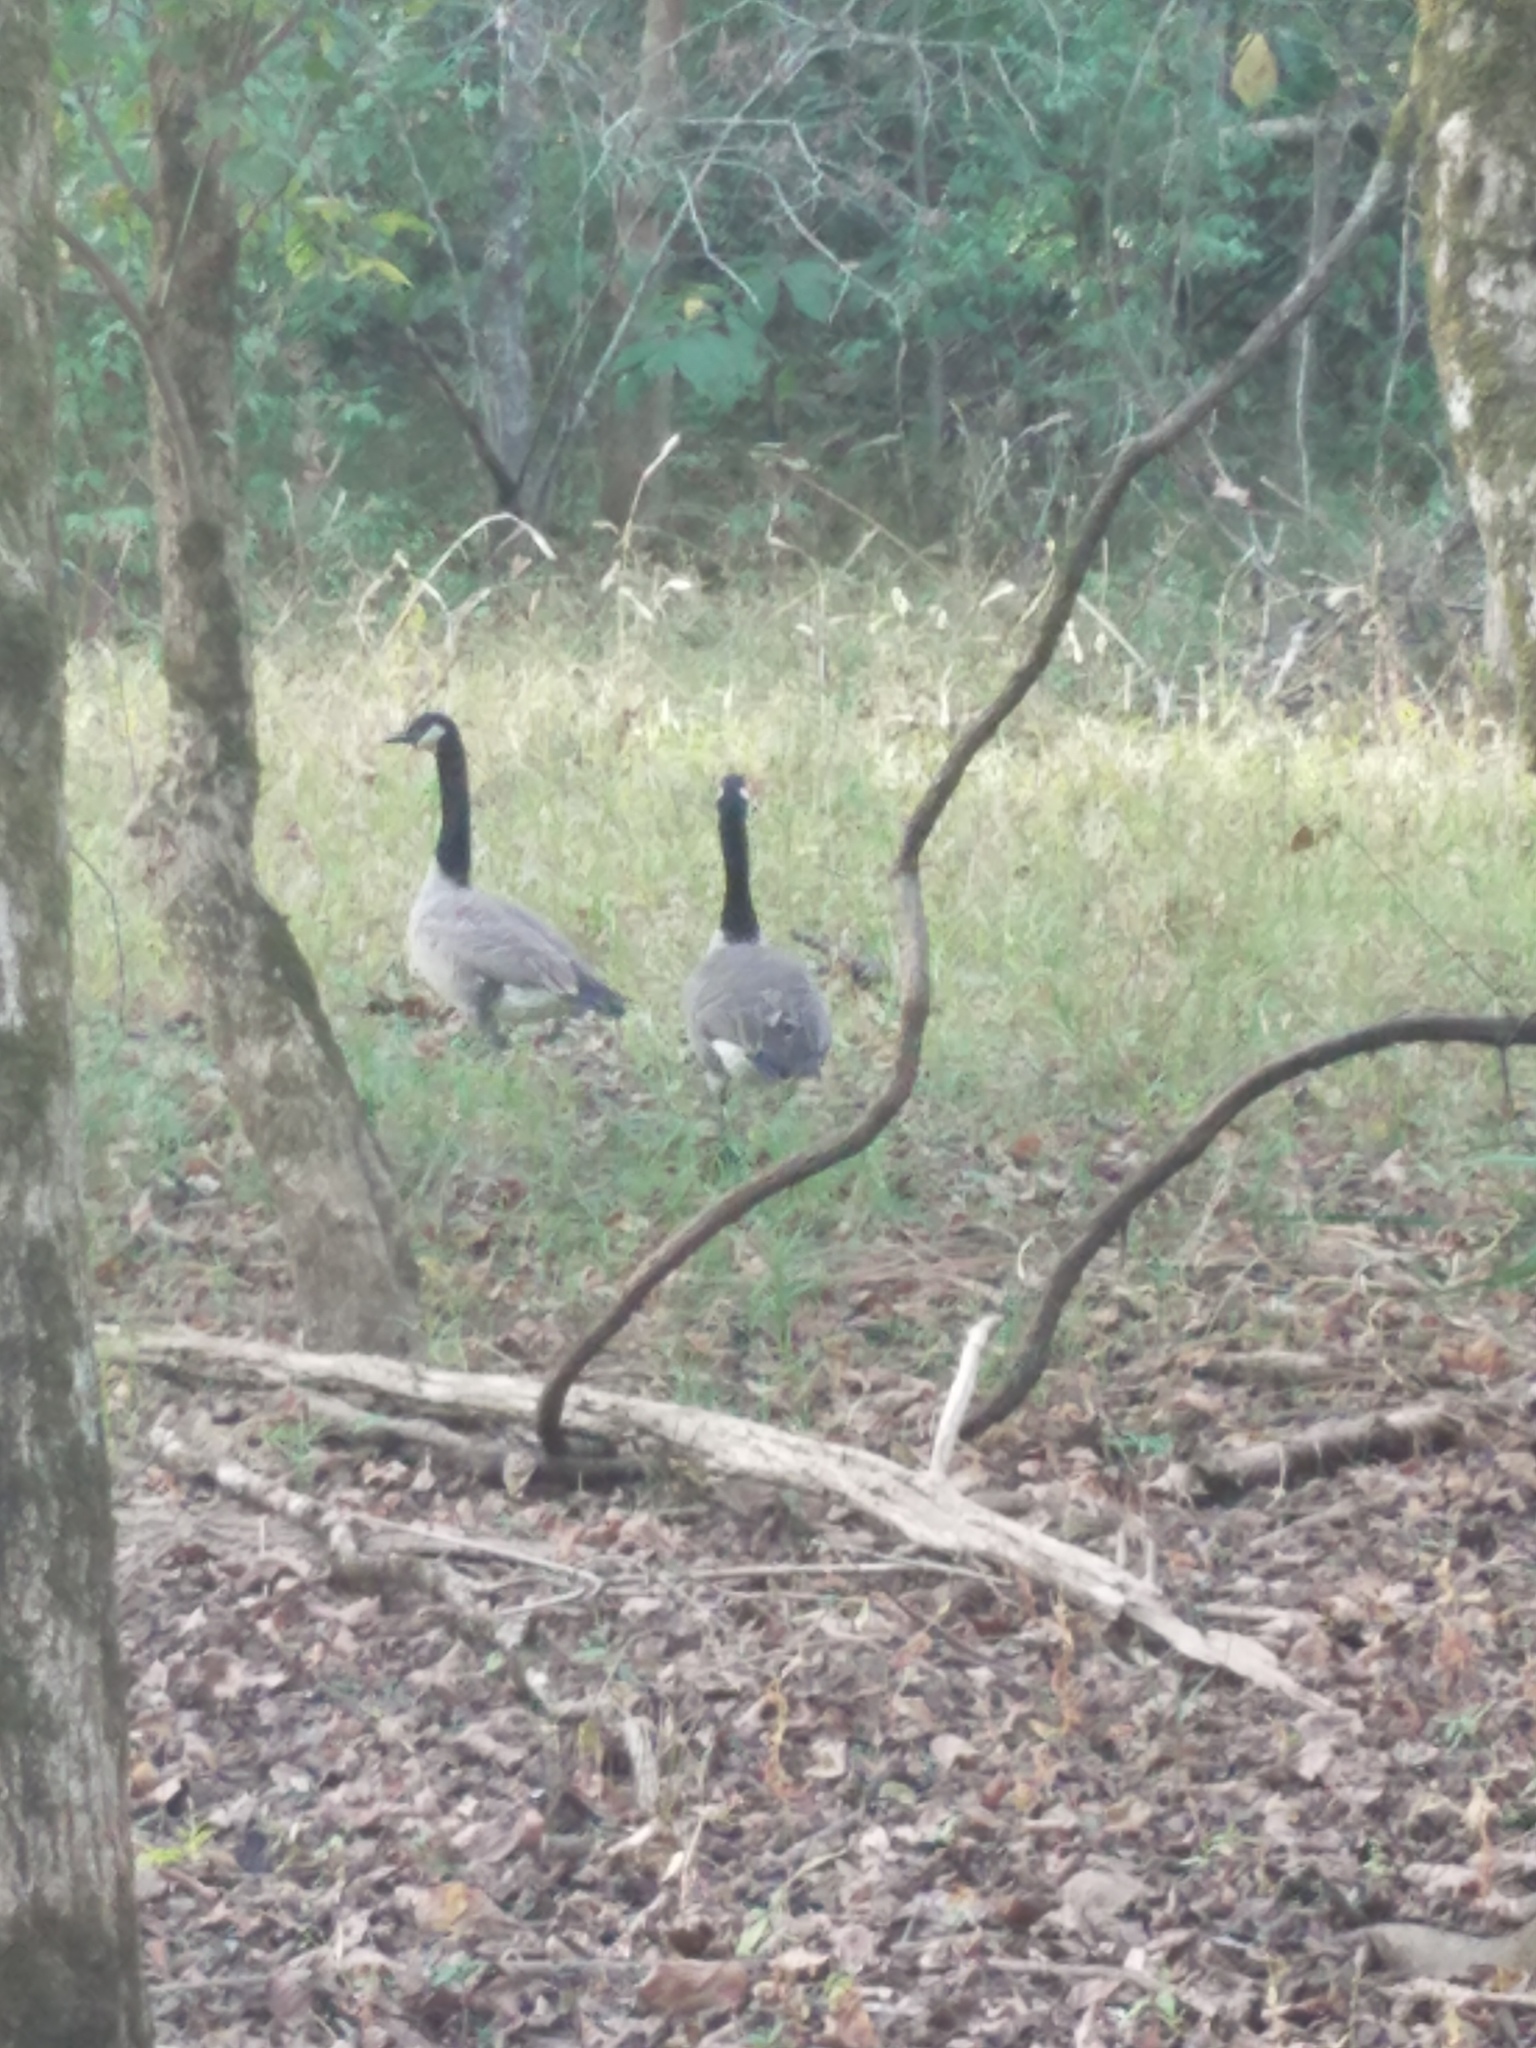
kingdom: Animalia
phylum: Chordata
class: Aves
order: Anseriformes
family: Anatidae
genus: Branta
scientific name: Branta canadensis
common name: Canada goose
